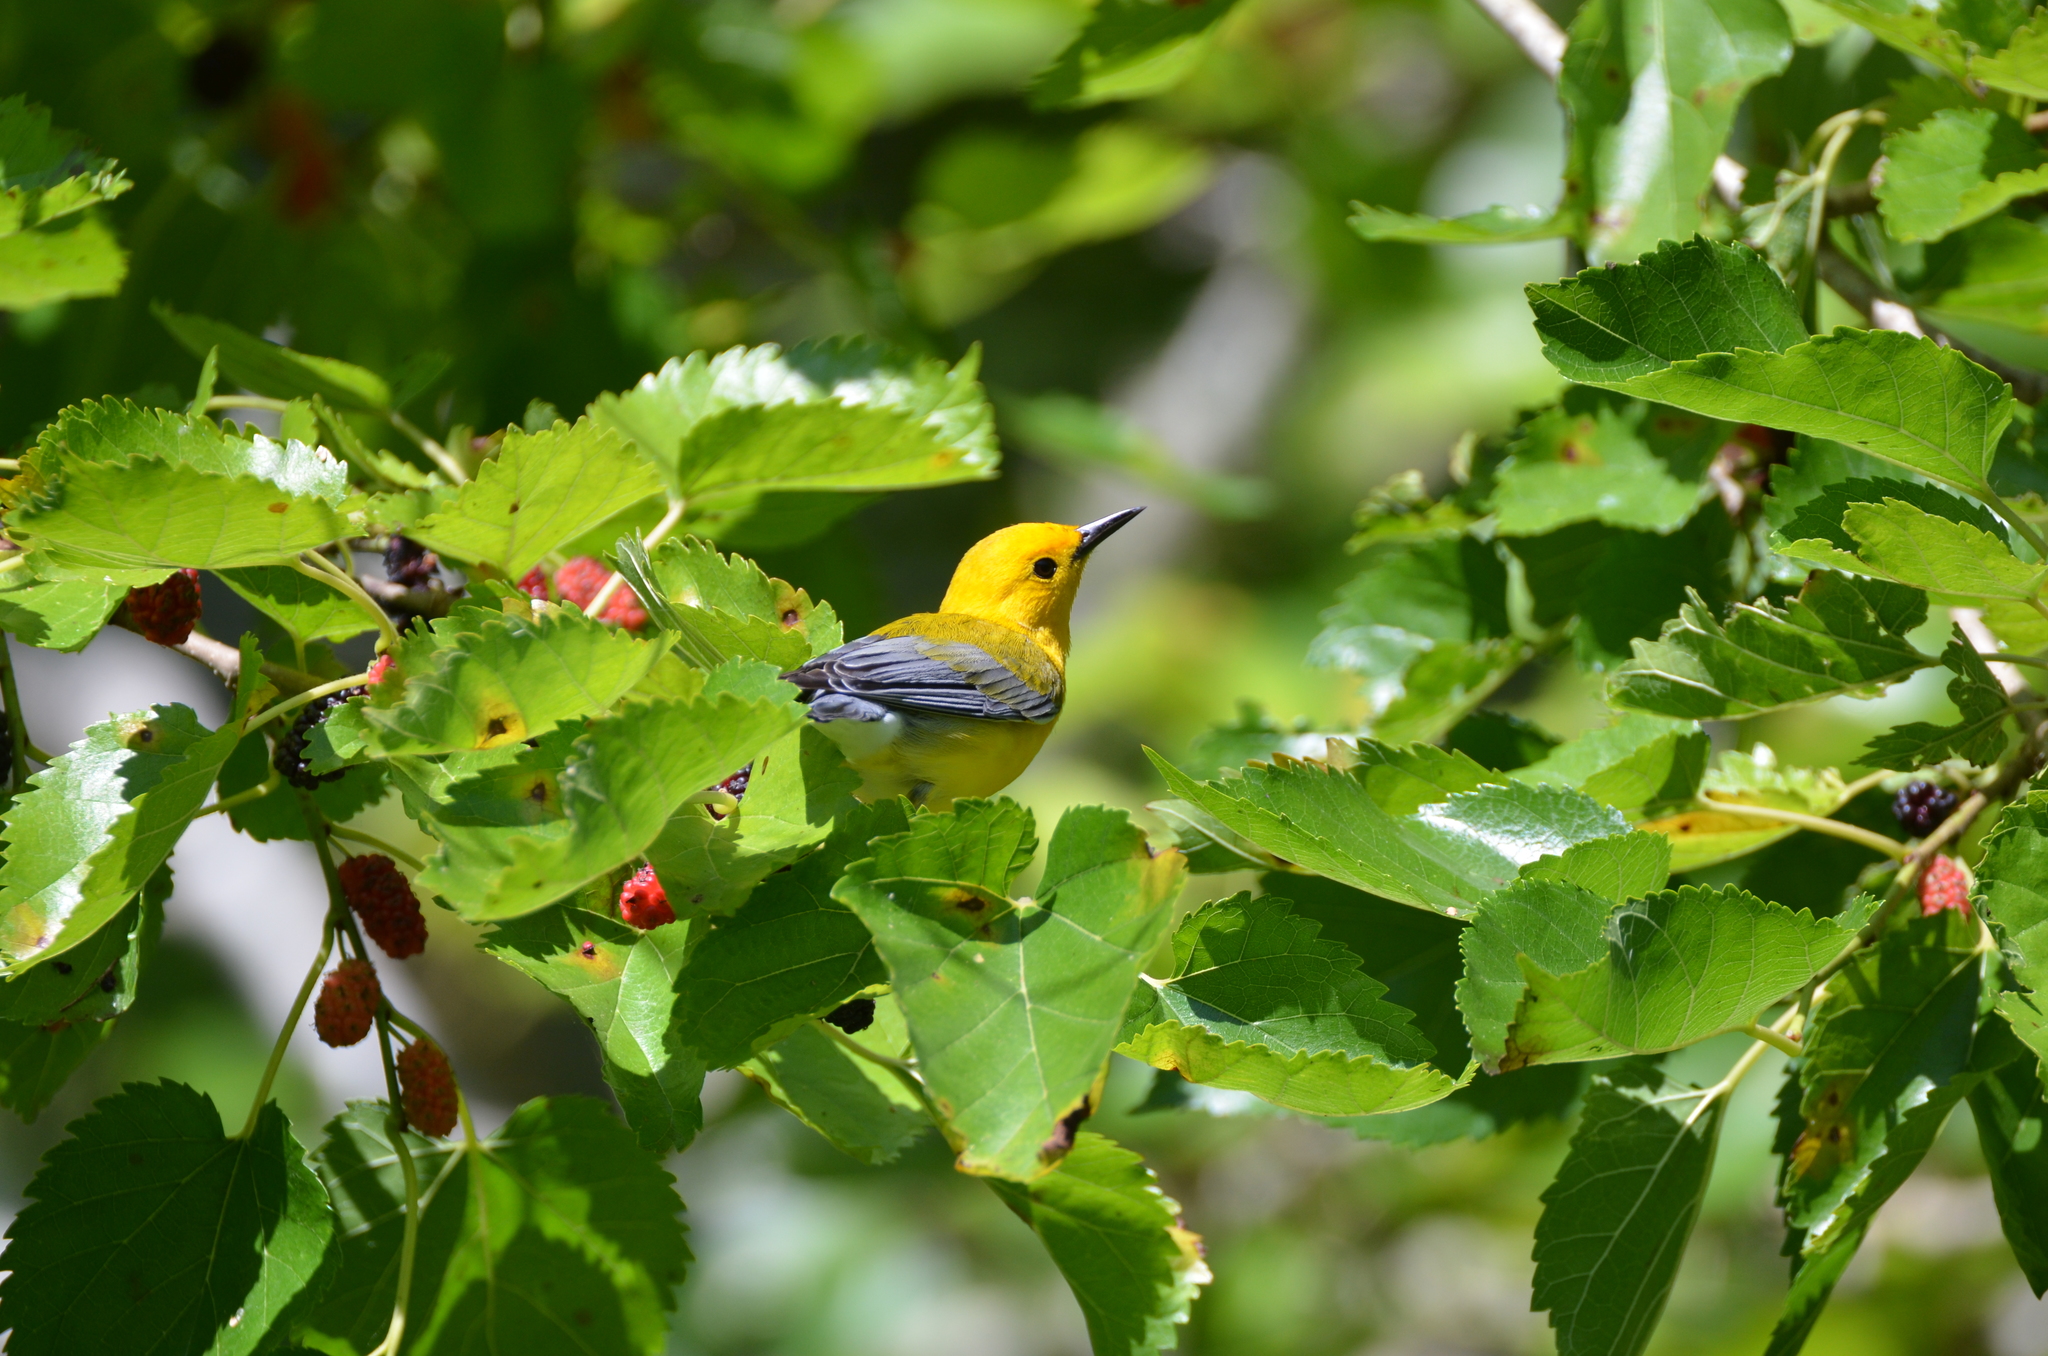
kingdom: Animalia
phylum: Chordata
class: Aves
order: Passeriformes
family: Parulidae
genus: Protonotaria
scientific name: Protonotaria citrea
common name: Prothonotary warbler
